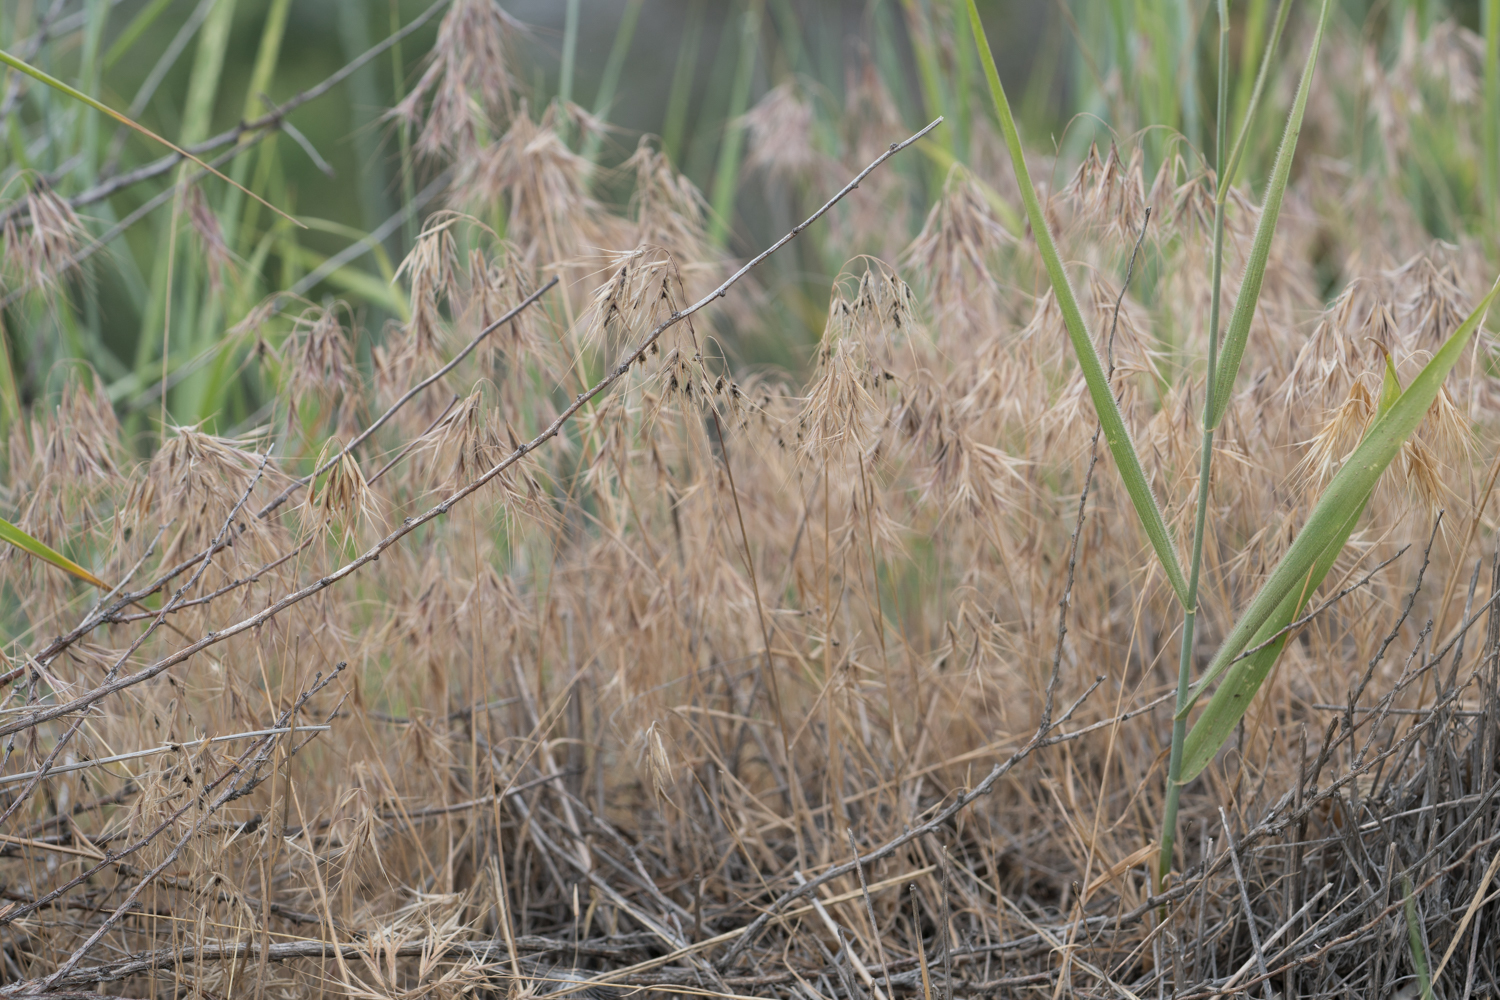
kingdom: Plantae
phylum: Tracheophyta
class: Liliopsida
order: Poales
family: Poaceae
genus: Bromus
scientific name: Bromus tectorum
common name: Cheatgrass
